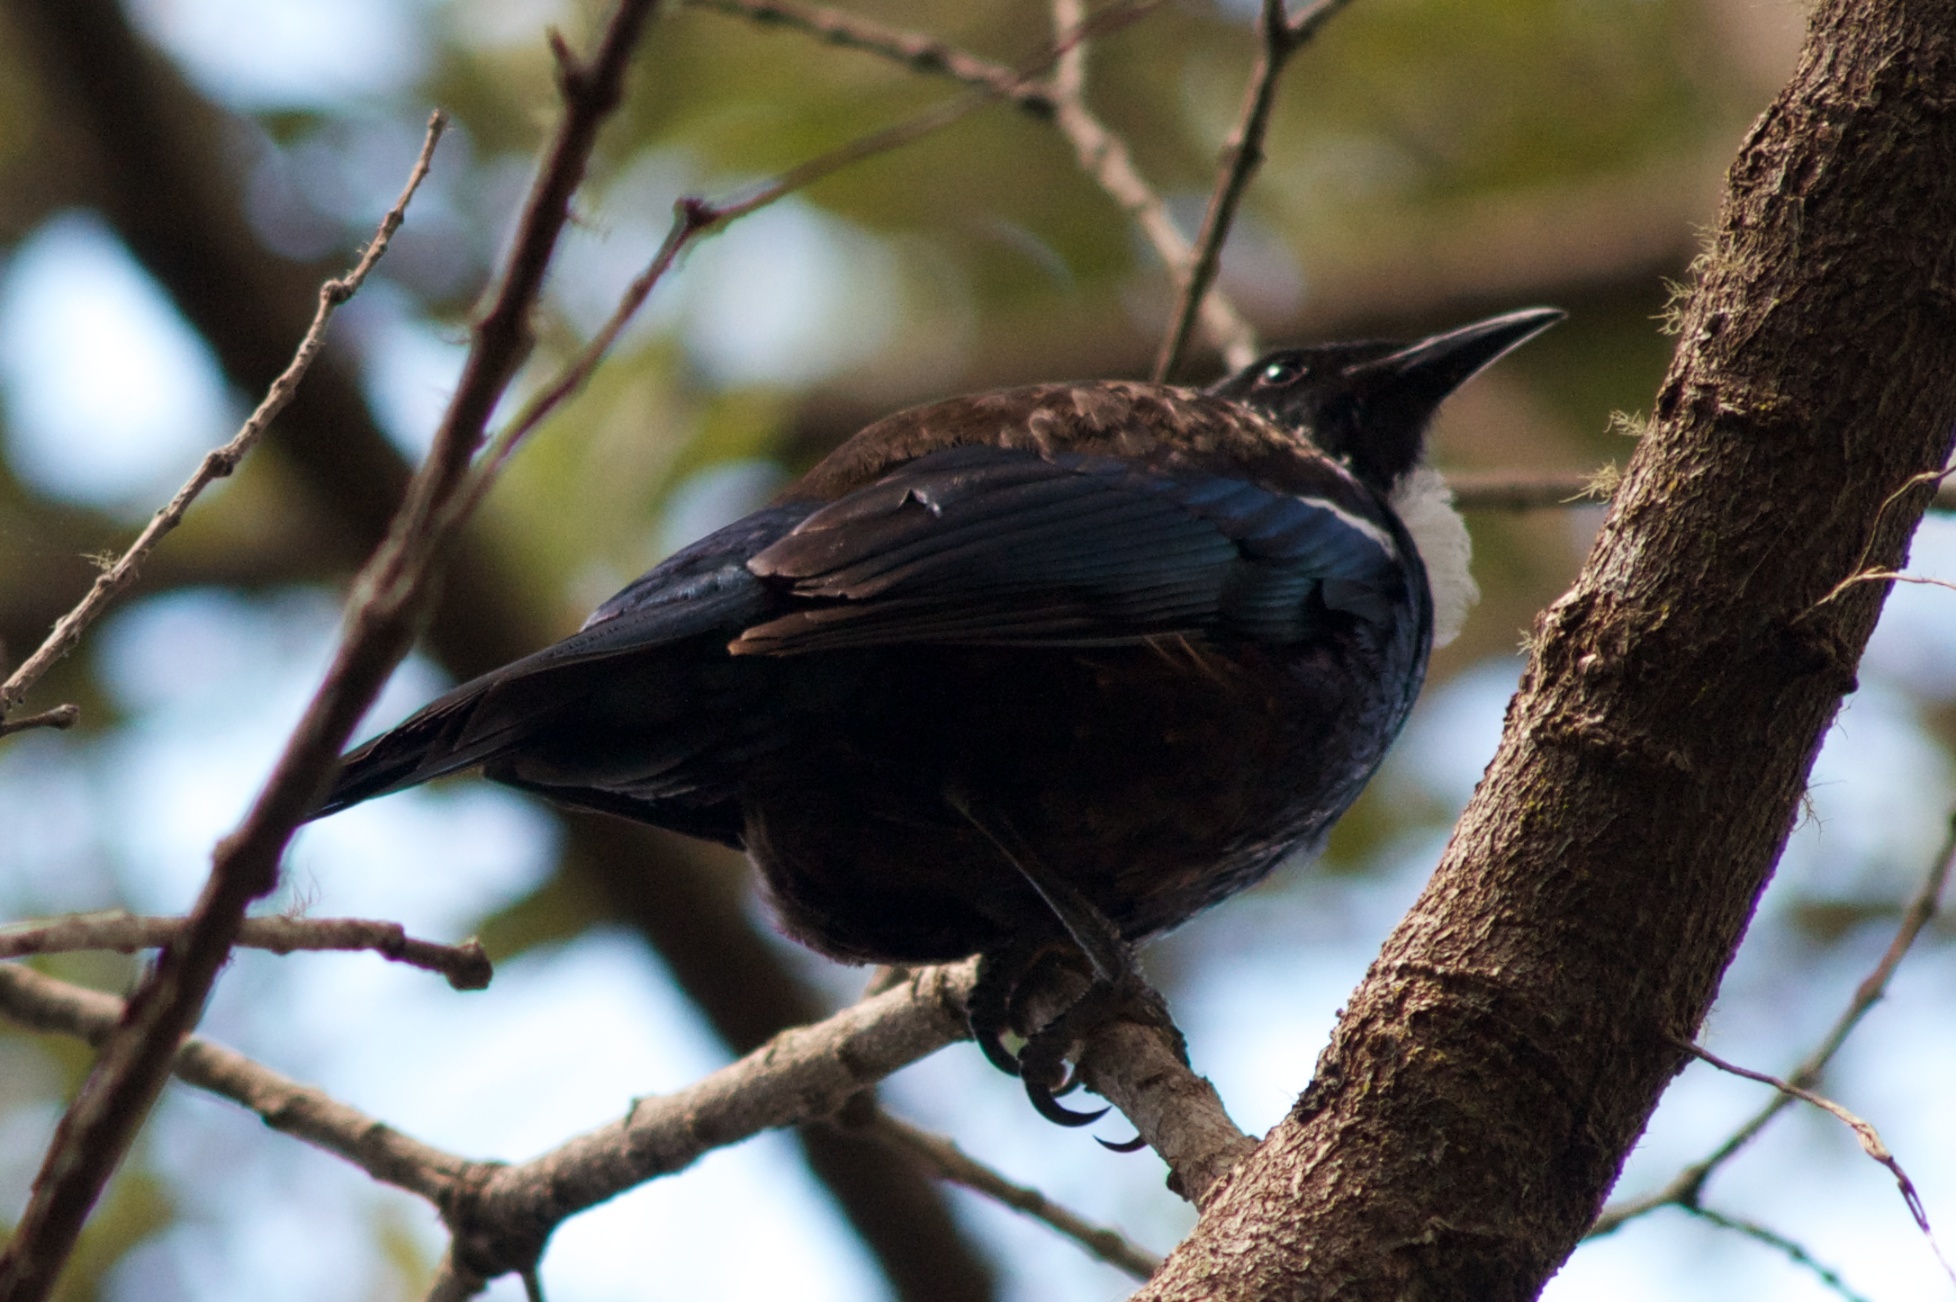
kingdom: Animalia
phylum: Chordata
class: Aves
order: Passeriformes
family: Meliphagidae
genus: Prosthemadera
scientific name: Prosthemadera novaeseelandiae
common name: Tui
